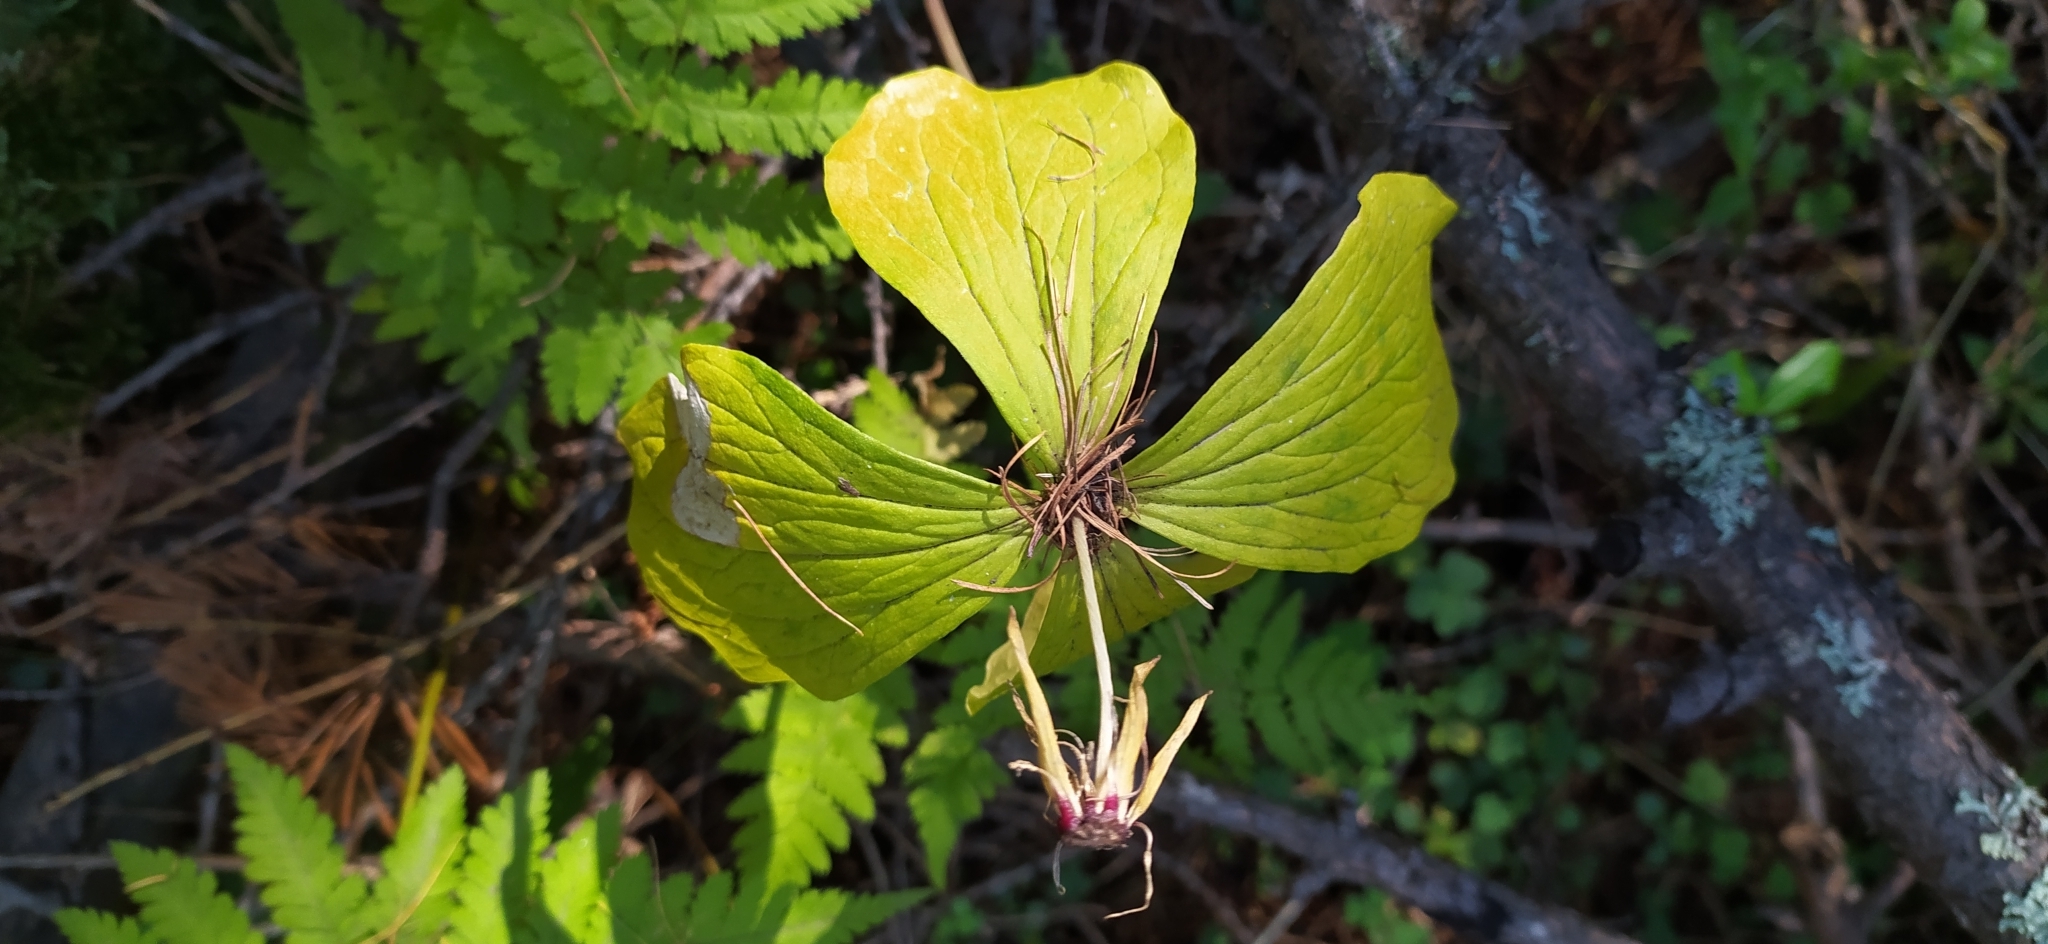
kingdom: Plantae
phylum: Tracheophyta
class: Liliopsida
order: Liliales
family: Melanthiaceae
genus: Paris
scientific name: Paris quadrifolia
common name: Herb-paris
